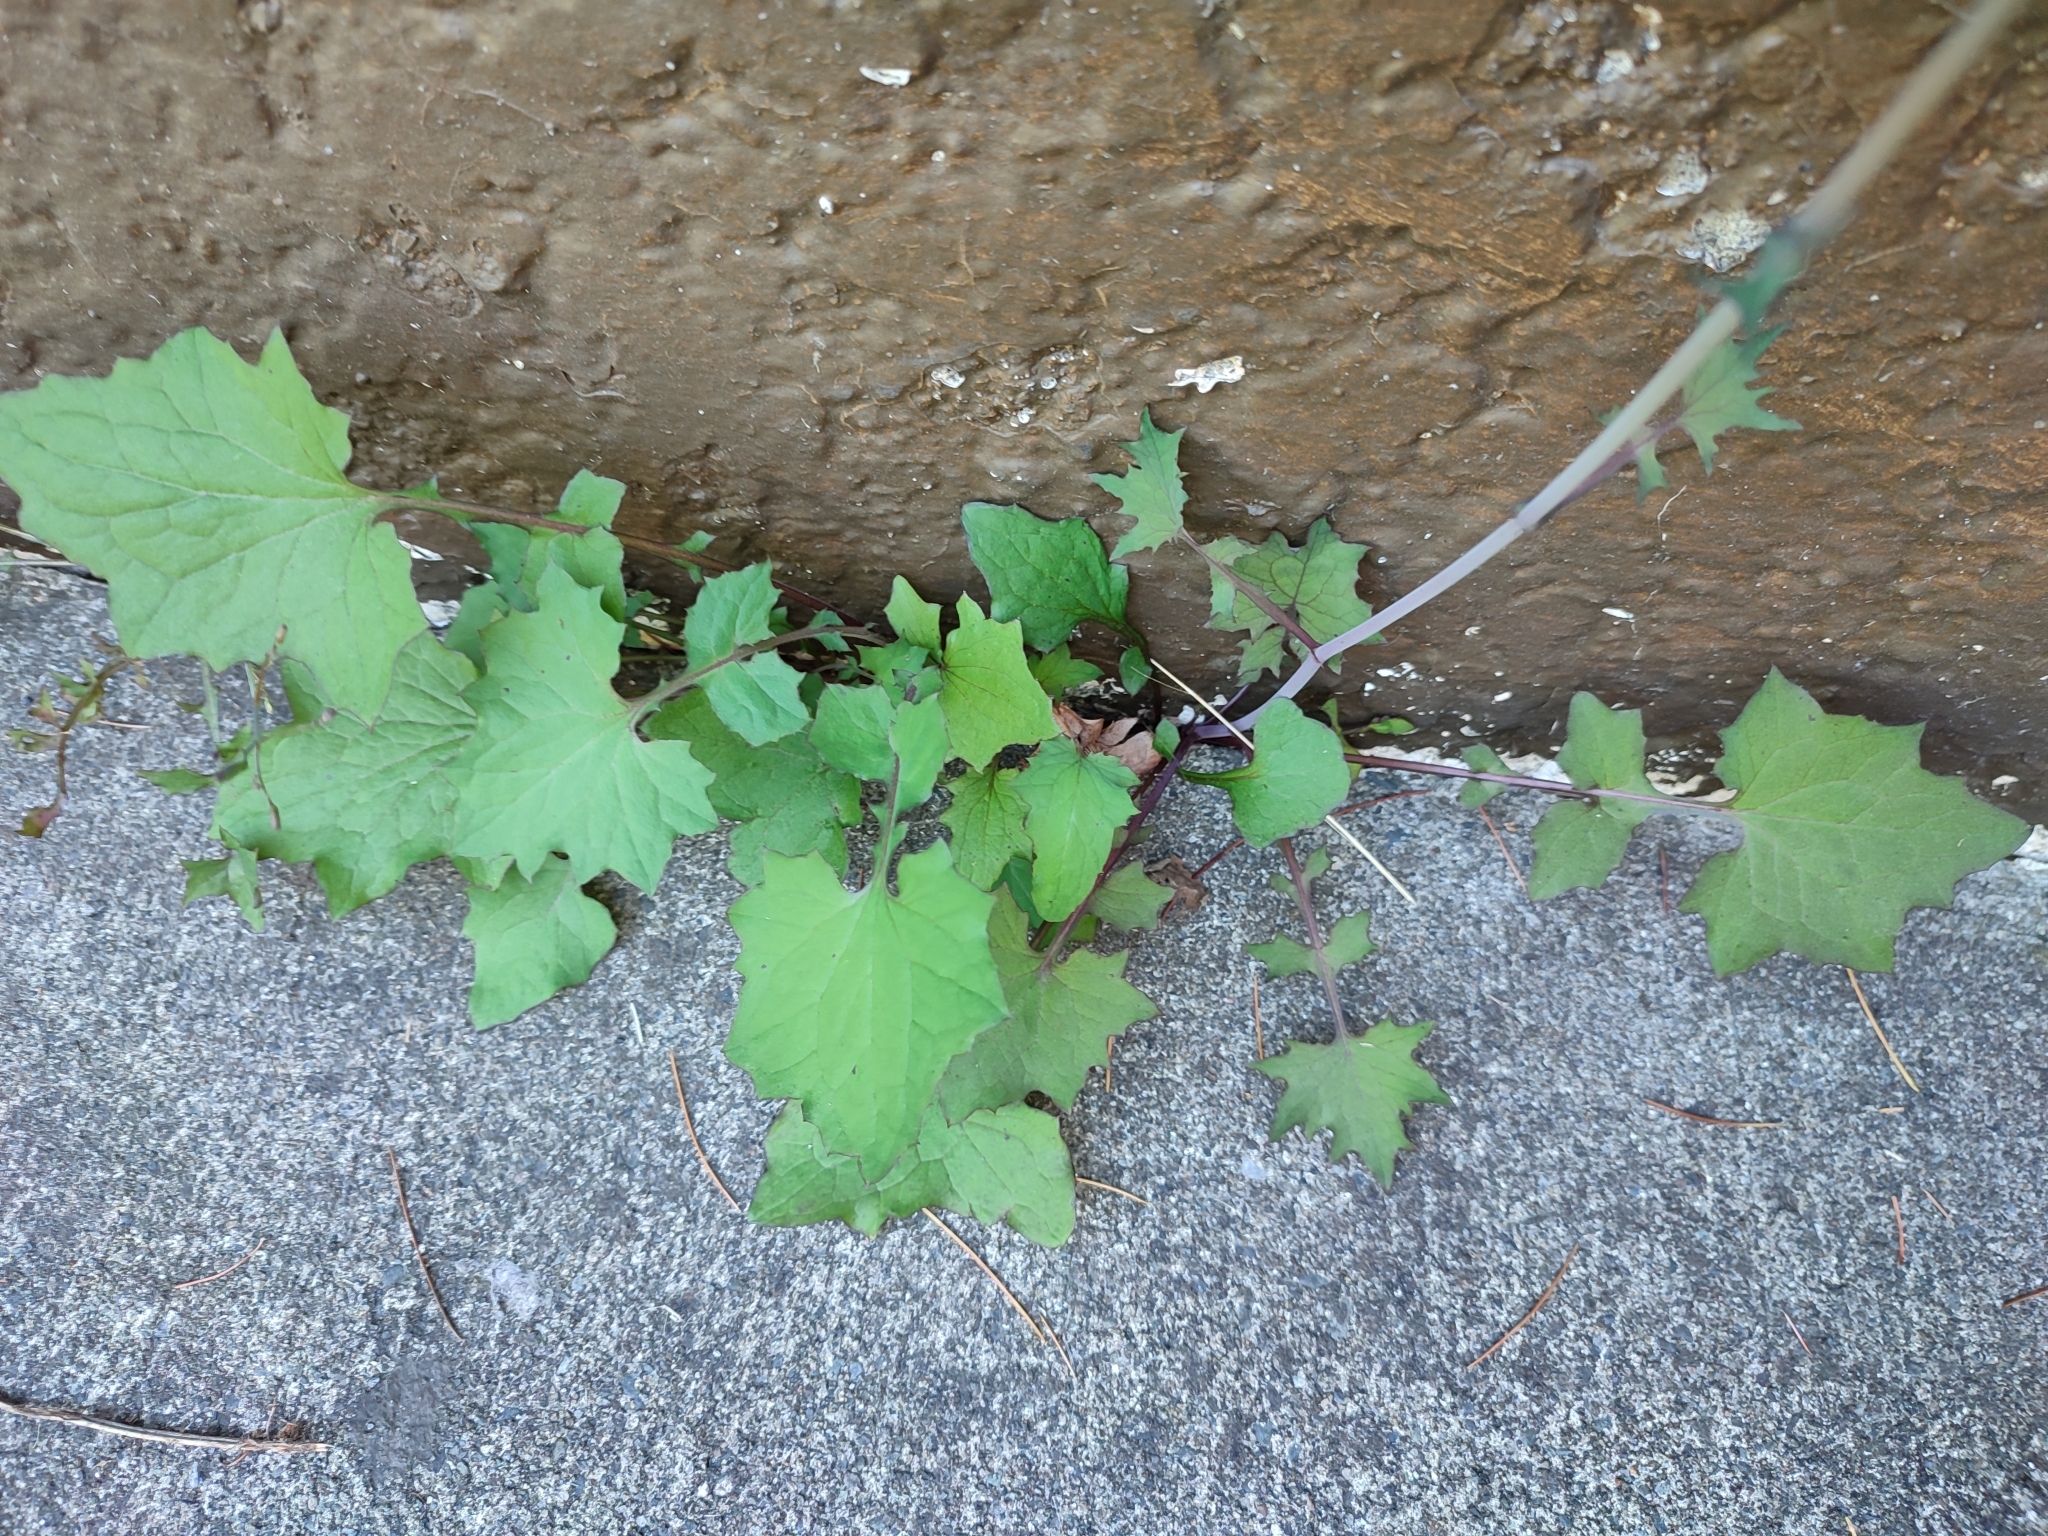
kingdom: Plantae
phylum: Tracheophyta
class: Magnoliopsida
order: Asterales
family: Asteraceae
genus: Mycelis
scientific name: Mycelis muralis
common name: Wall lettuce
